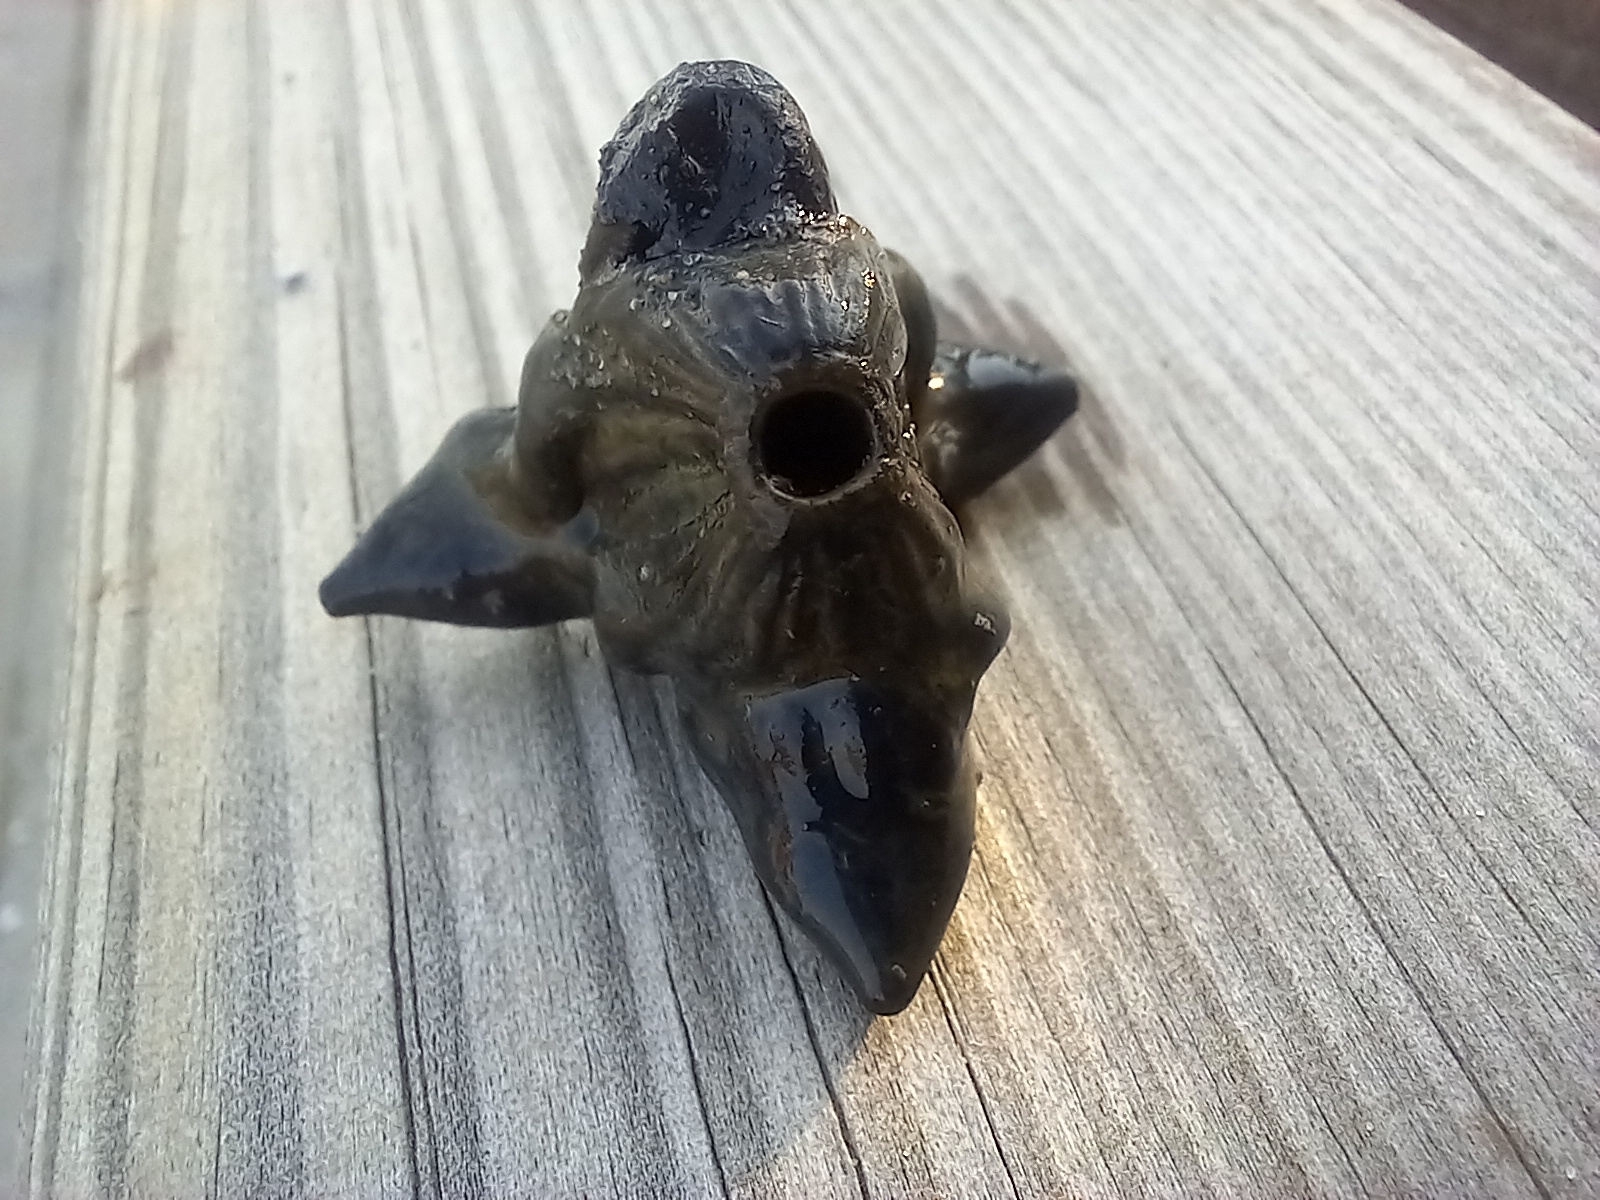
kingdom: Plantae
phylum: Tracheophyta
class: Magnoliopsida
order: Myrtales
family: Lythraceae
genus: Trapa
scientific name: Trapa natans
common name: Water chestnut
